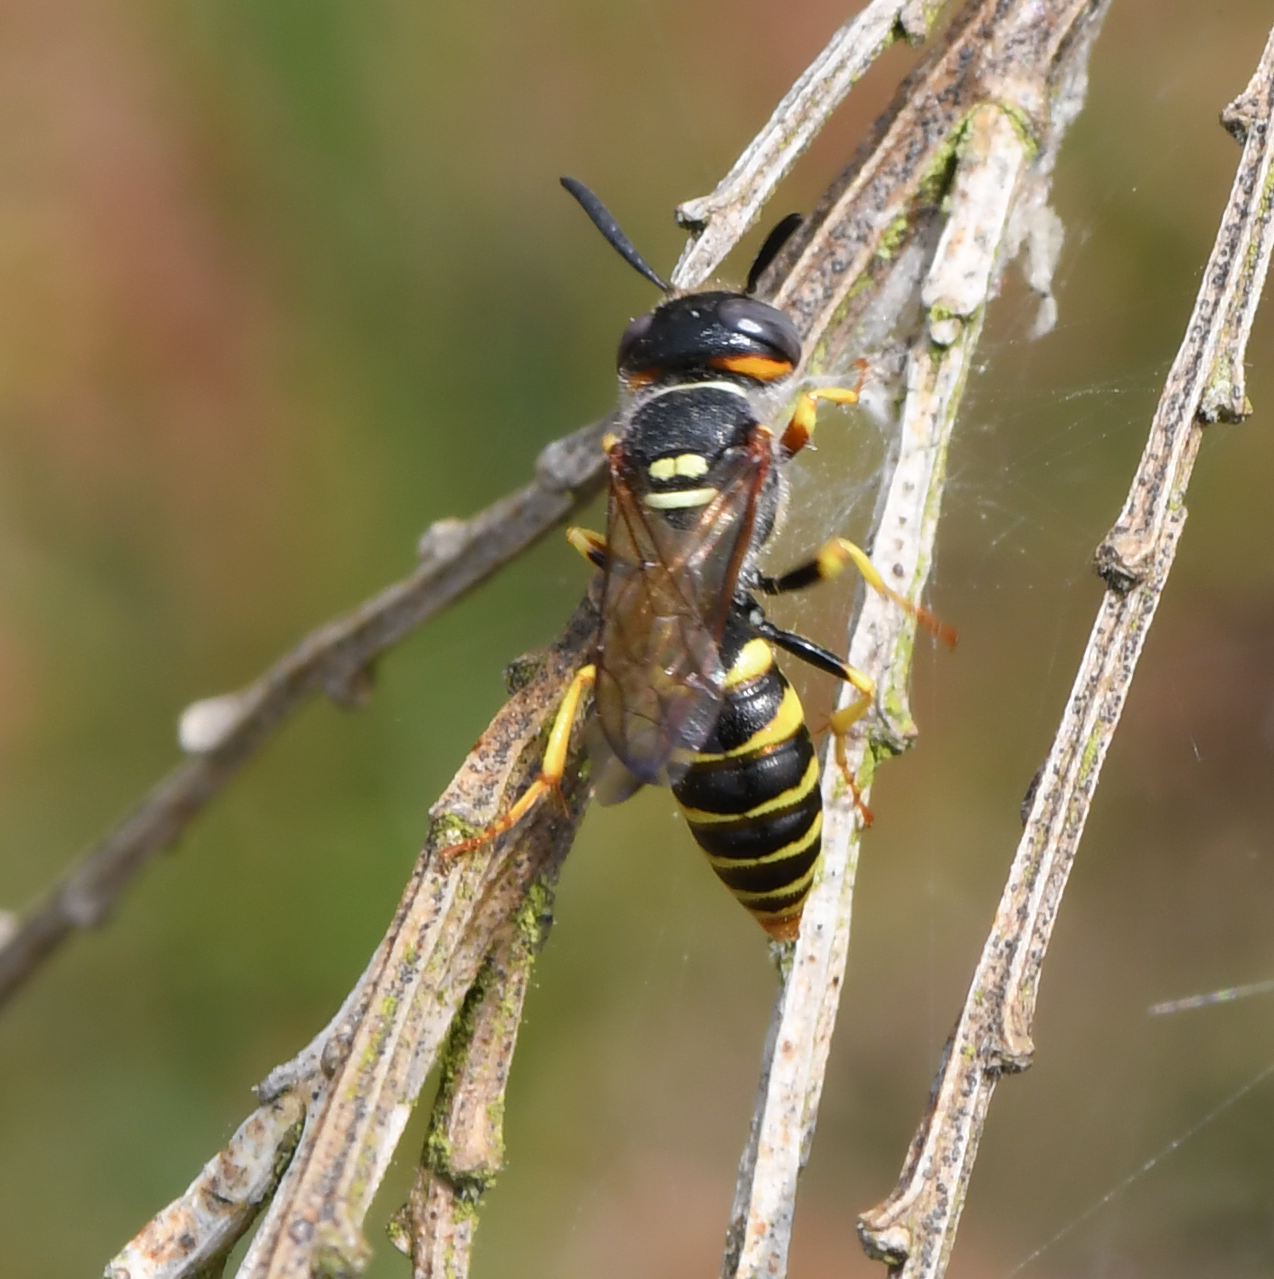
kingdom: Animalia
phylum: Arthropoda
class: Insecta
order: Hymenoptera
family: Crabronidae
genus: Philanthus
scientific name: Philanthus triangulum
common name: Bee wolf
